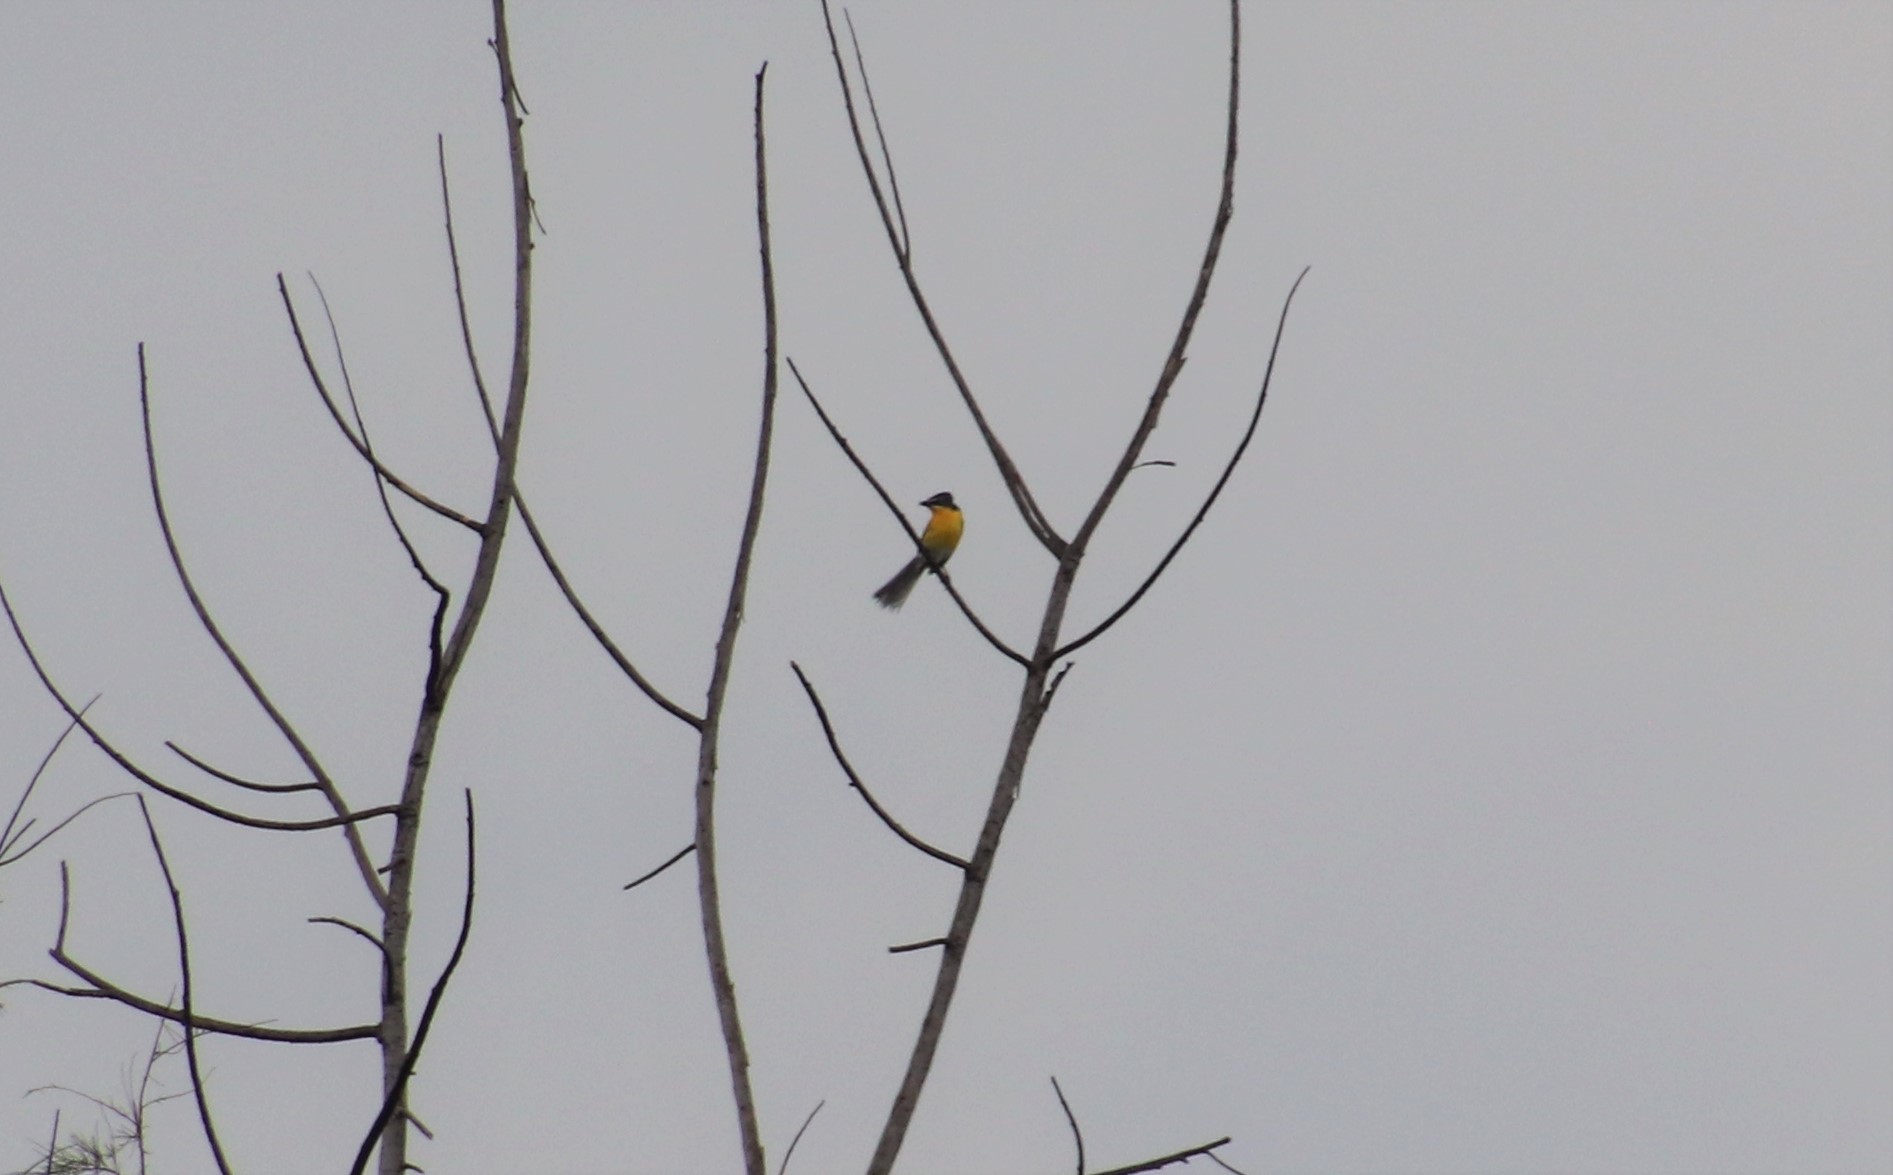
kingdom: Animalia
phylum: Chordata
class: Aves
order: Passeriformes
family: Parulidae
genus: Icteria
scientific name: Icteria virens
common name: Yellow-breasted chat
